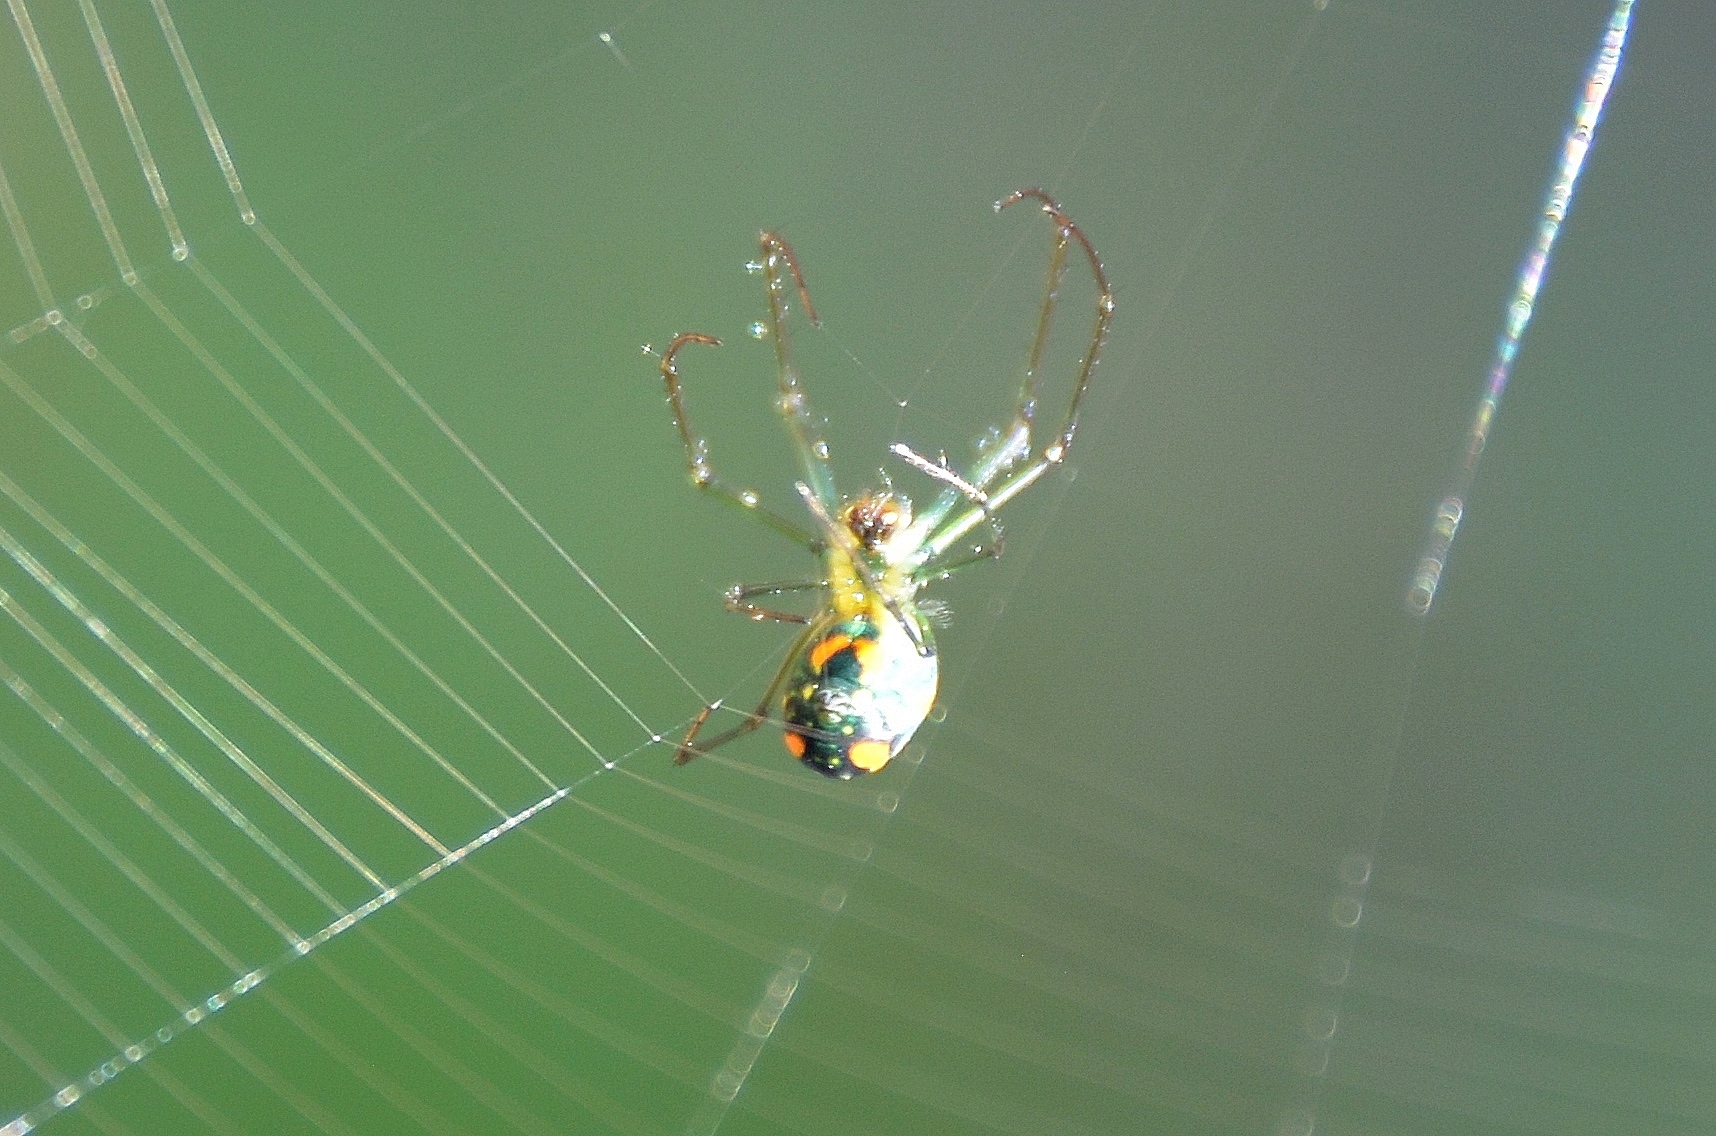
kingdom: Animalia
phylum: Arthropoda
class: Arachnida
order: Araneae
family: Tetragnathidae
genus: Leucauge
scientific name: Leucauge argyrobapta
